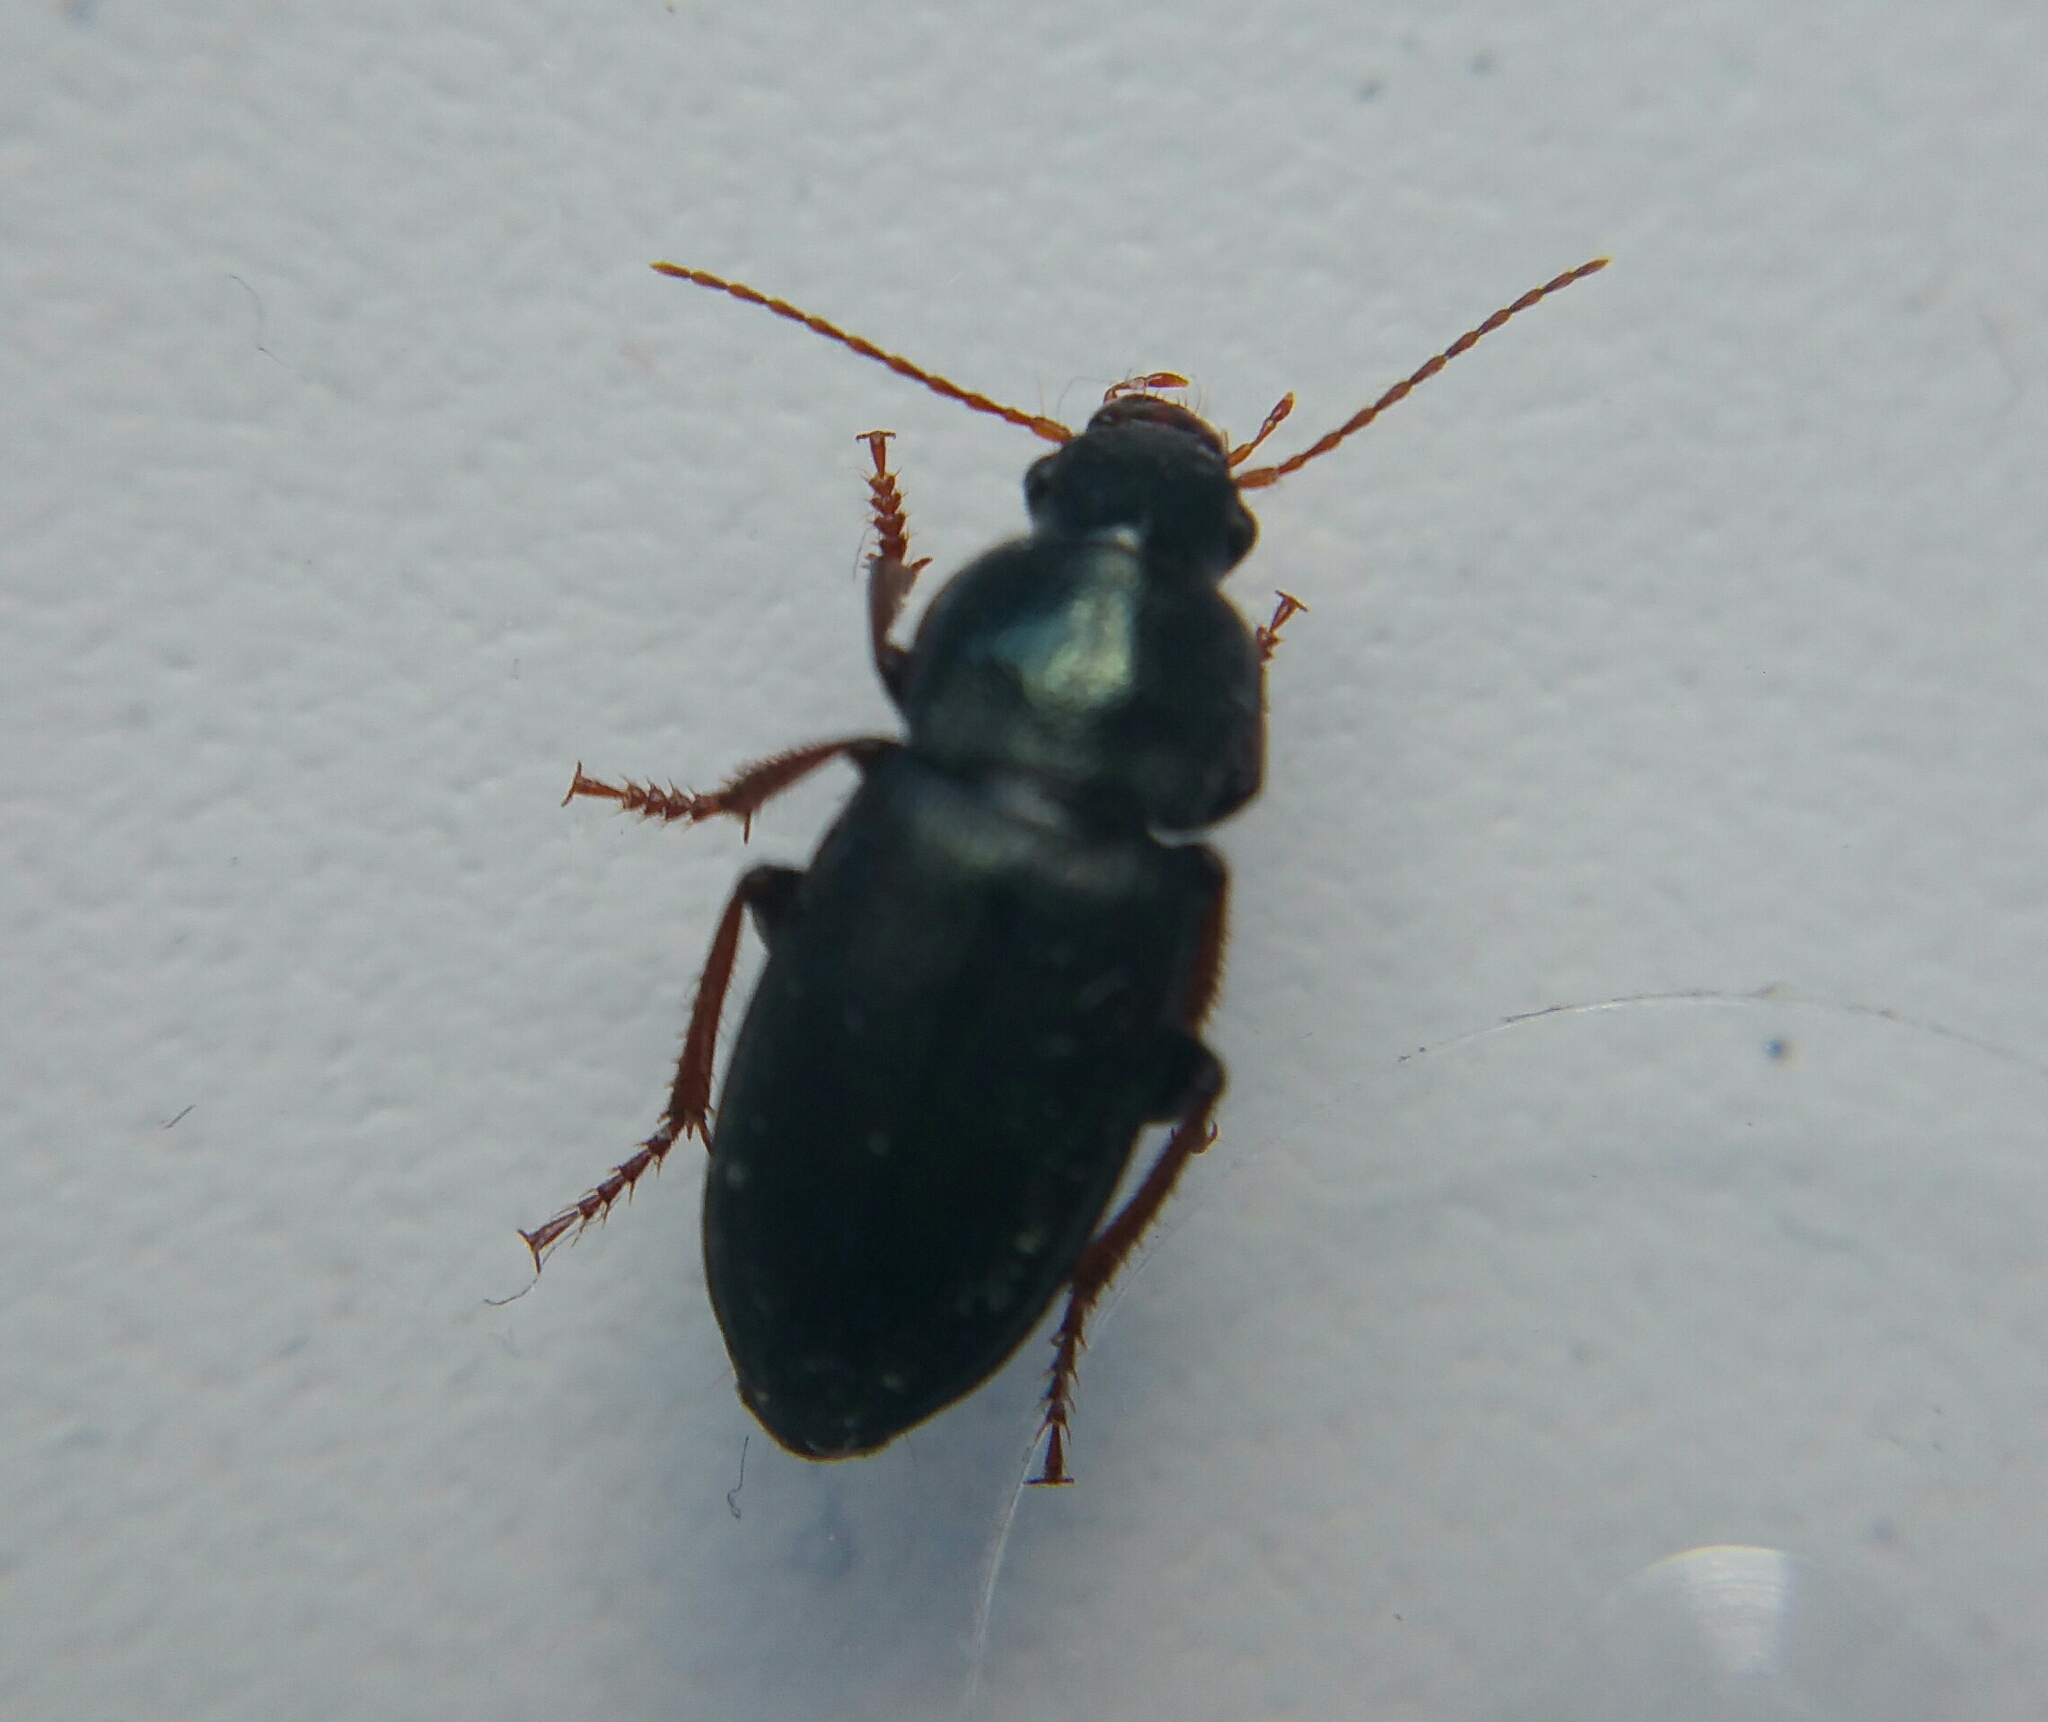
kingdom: Animalia
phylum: Arthropoda
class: Insecta
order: Coleoptera
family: Carabidae
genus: Ophonus
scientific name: Ophonus cribricollis
